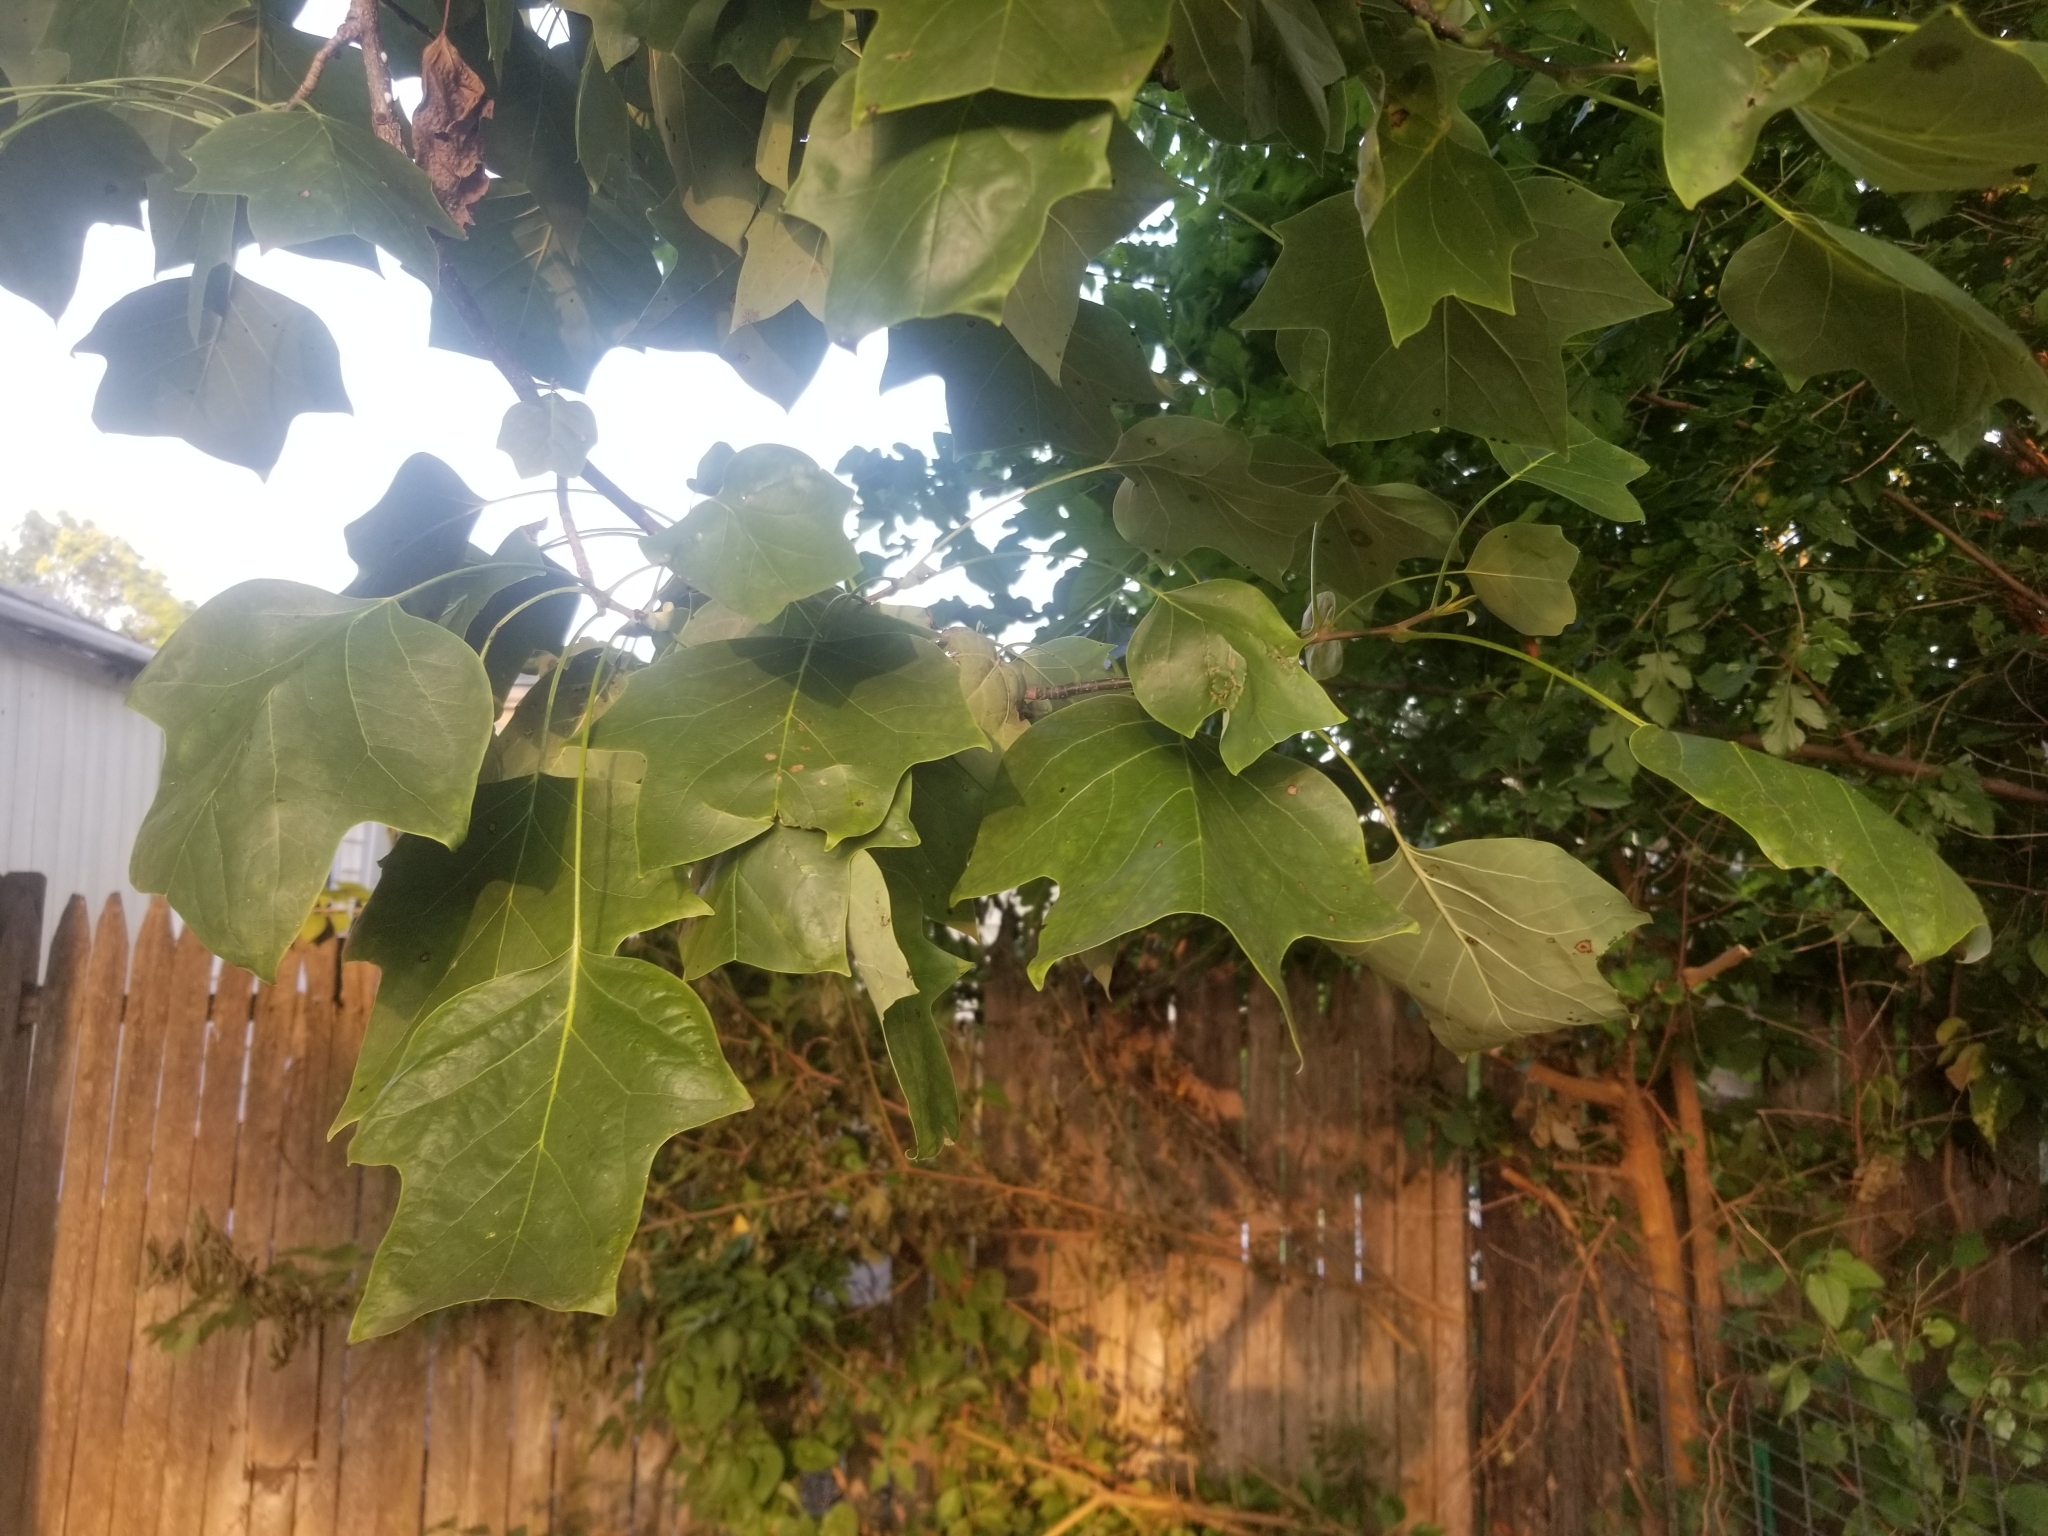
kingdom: Plantae
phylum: Tracheophyta
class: Magnoliopsida
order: Magnoliales
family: Magnoliaceae
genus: Liriodendron
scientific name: Liriodendron tulipifera
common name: Tulip tree
